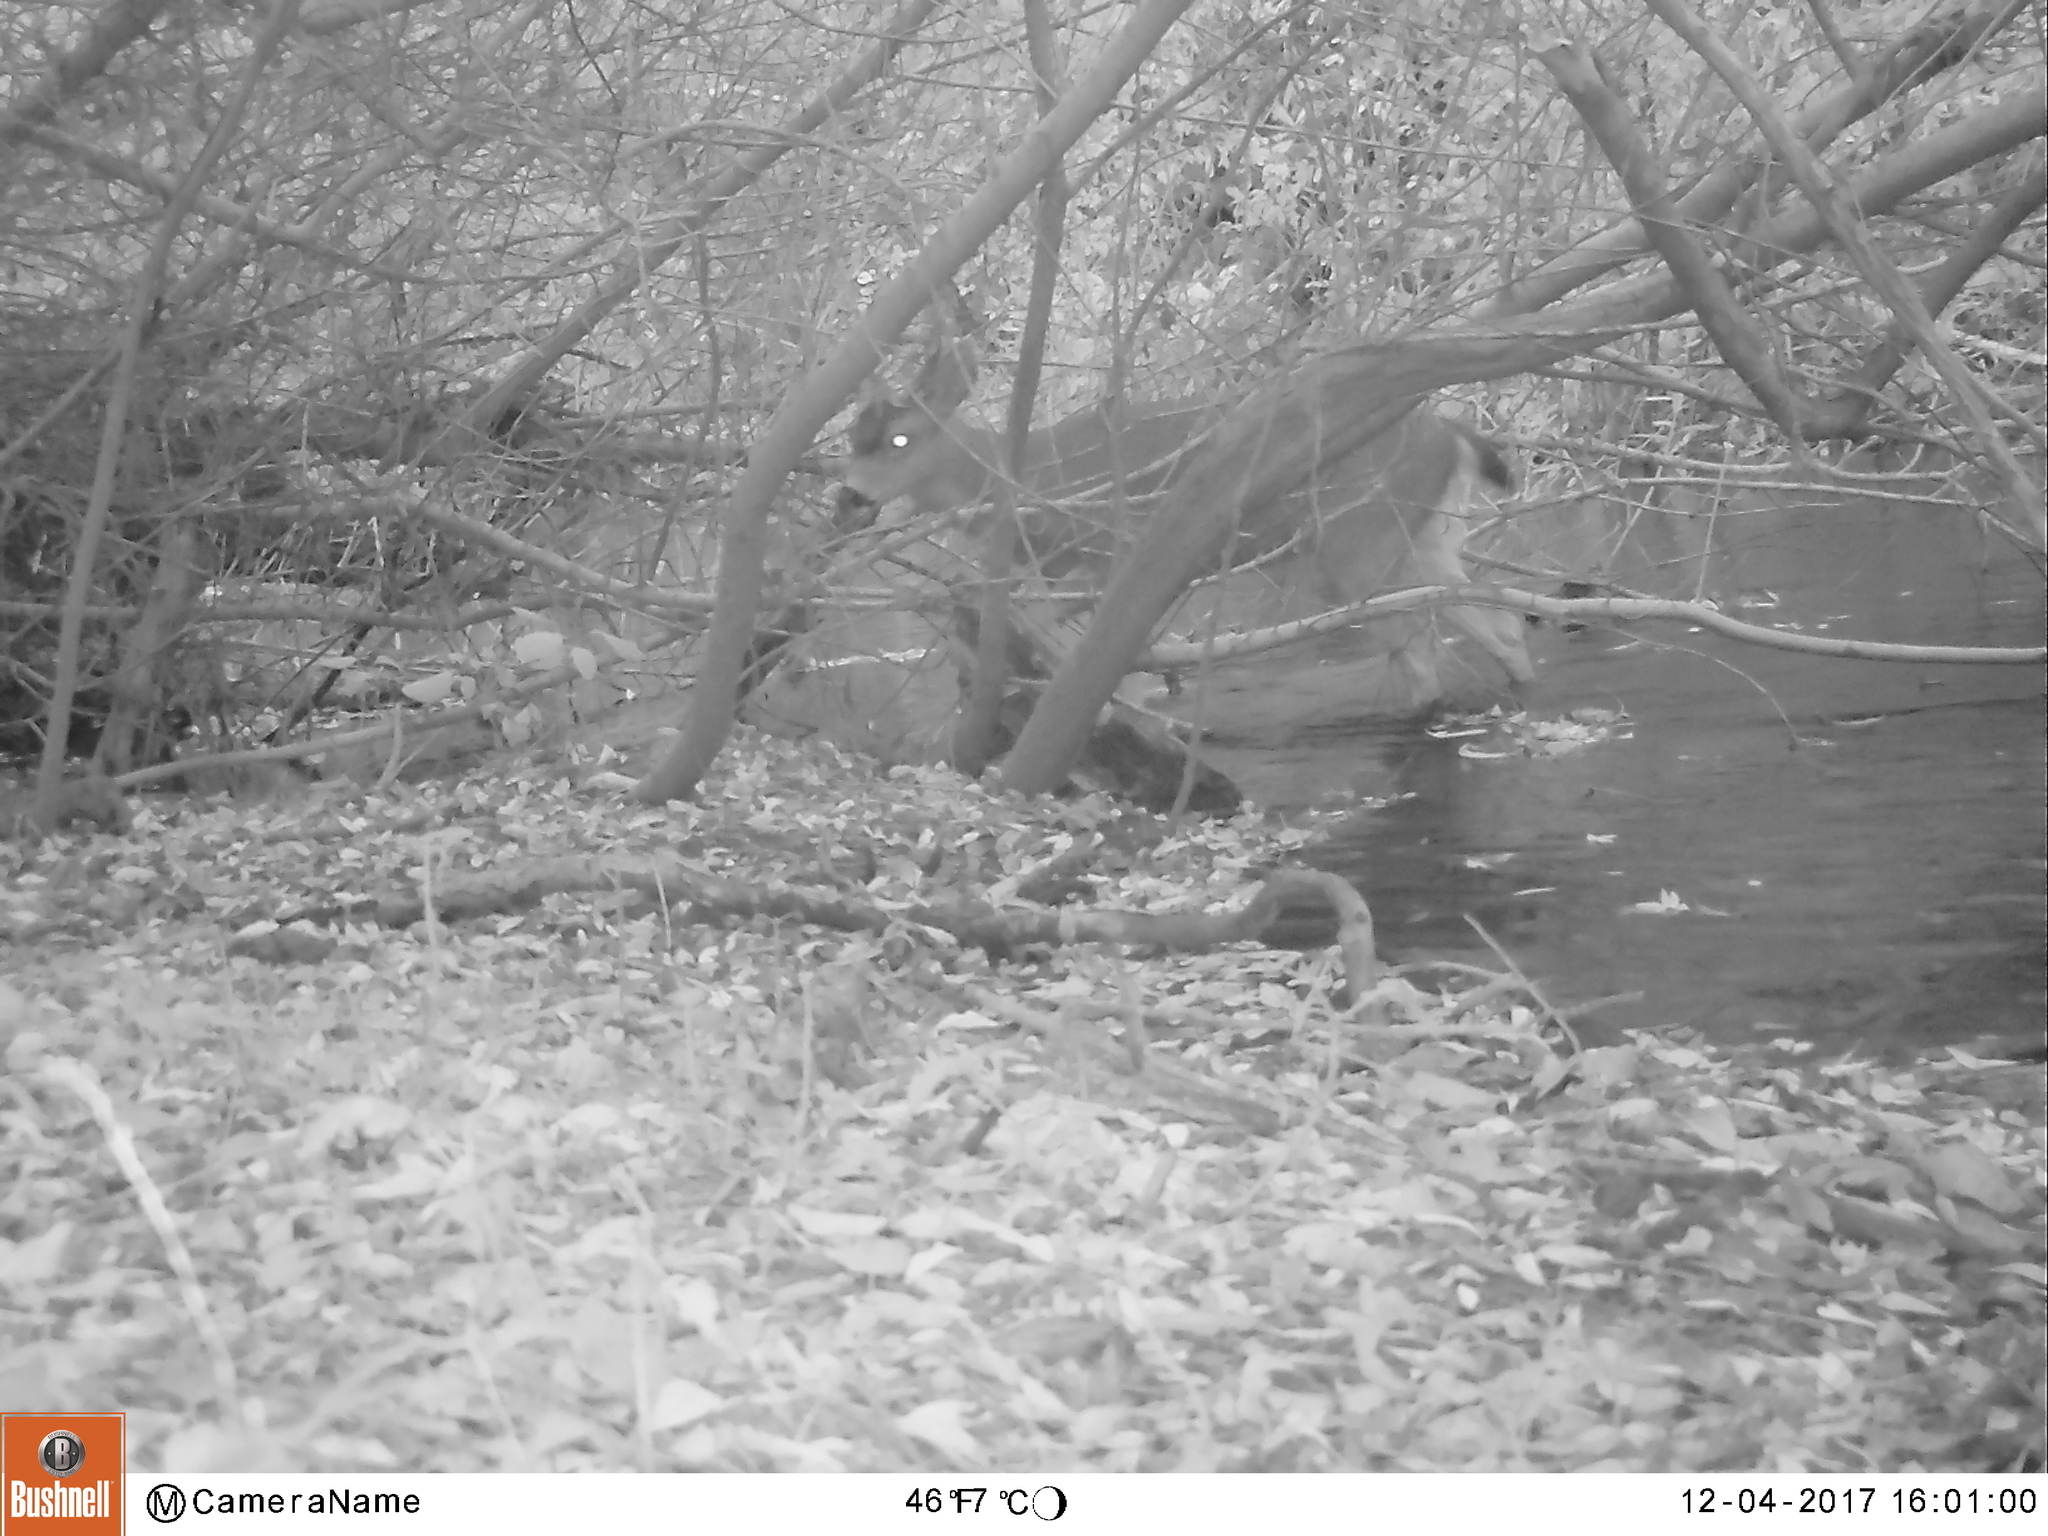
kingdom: Animalia
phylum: Chordata
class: Mammalia
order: Artiodactyla
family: Cervidae
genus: Odocoileus
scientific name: Odocoileus hemionus
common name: Mule deer
